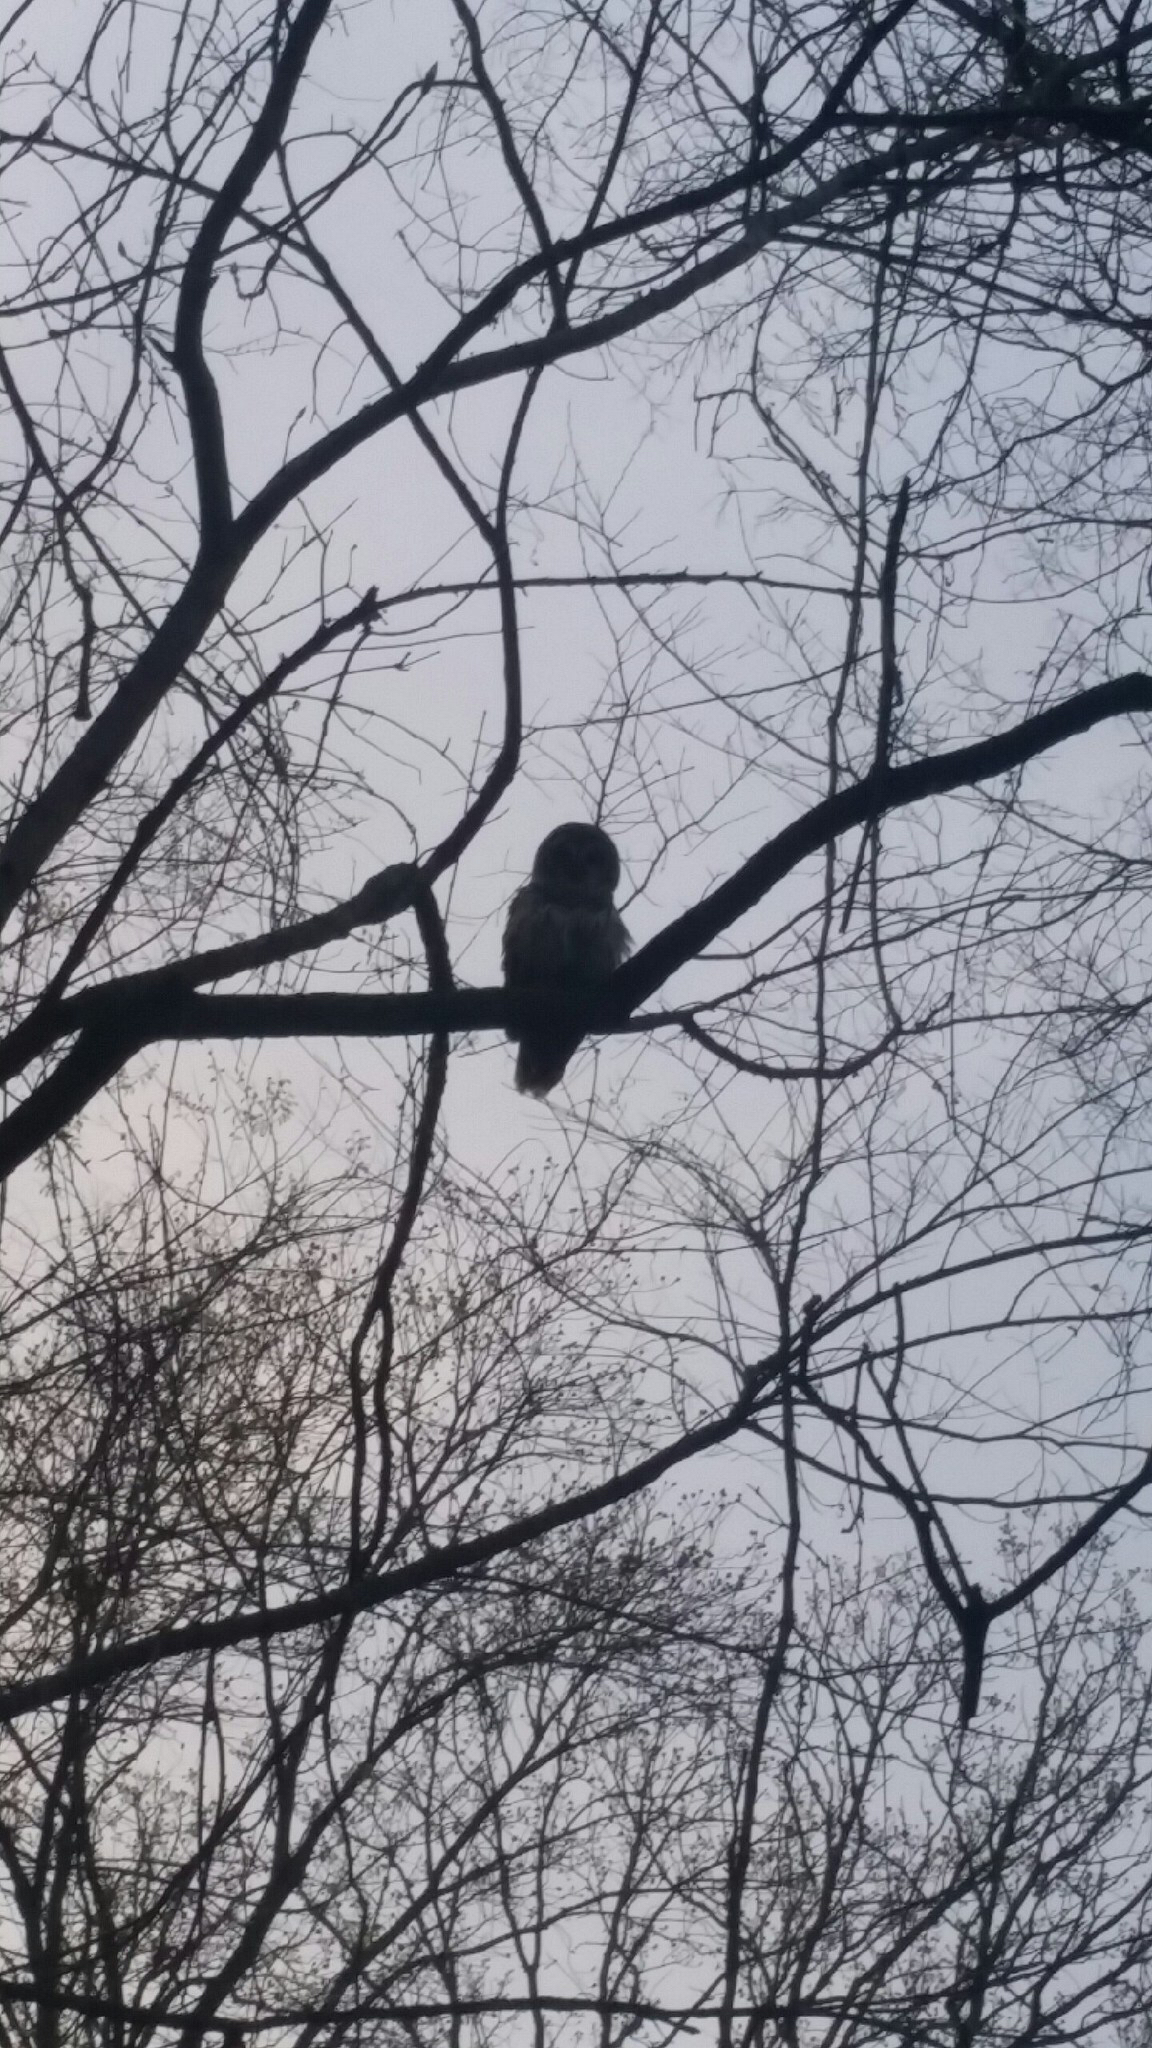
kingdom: Animalia
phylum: Chordata
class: Aves
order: Strigiformes
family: Strigidae
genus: Strix
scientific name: Strix varia
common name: Barred owl
